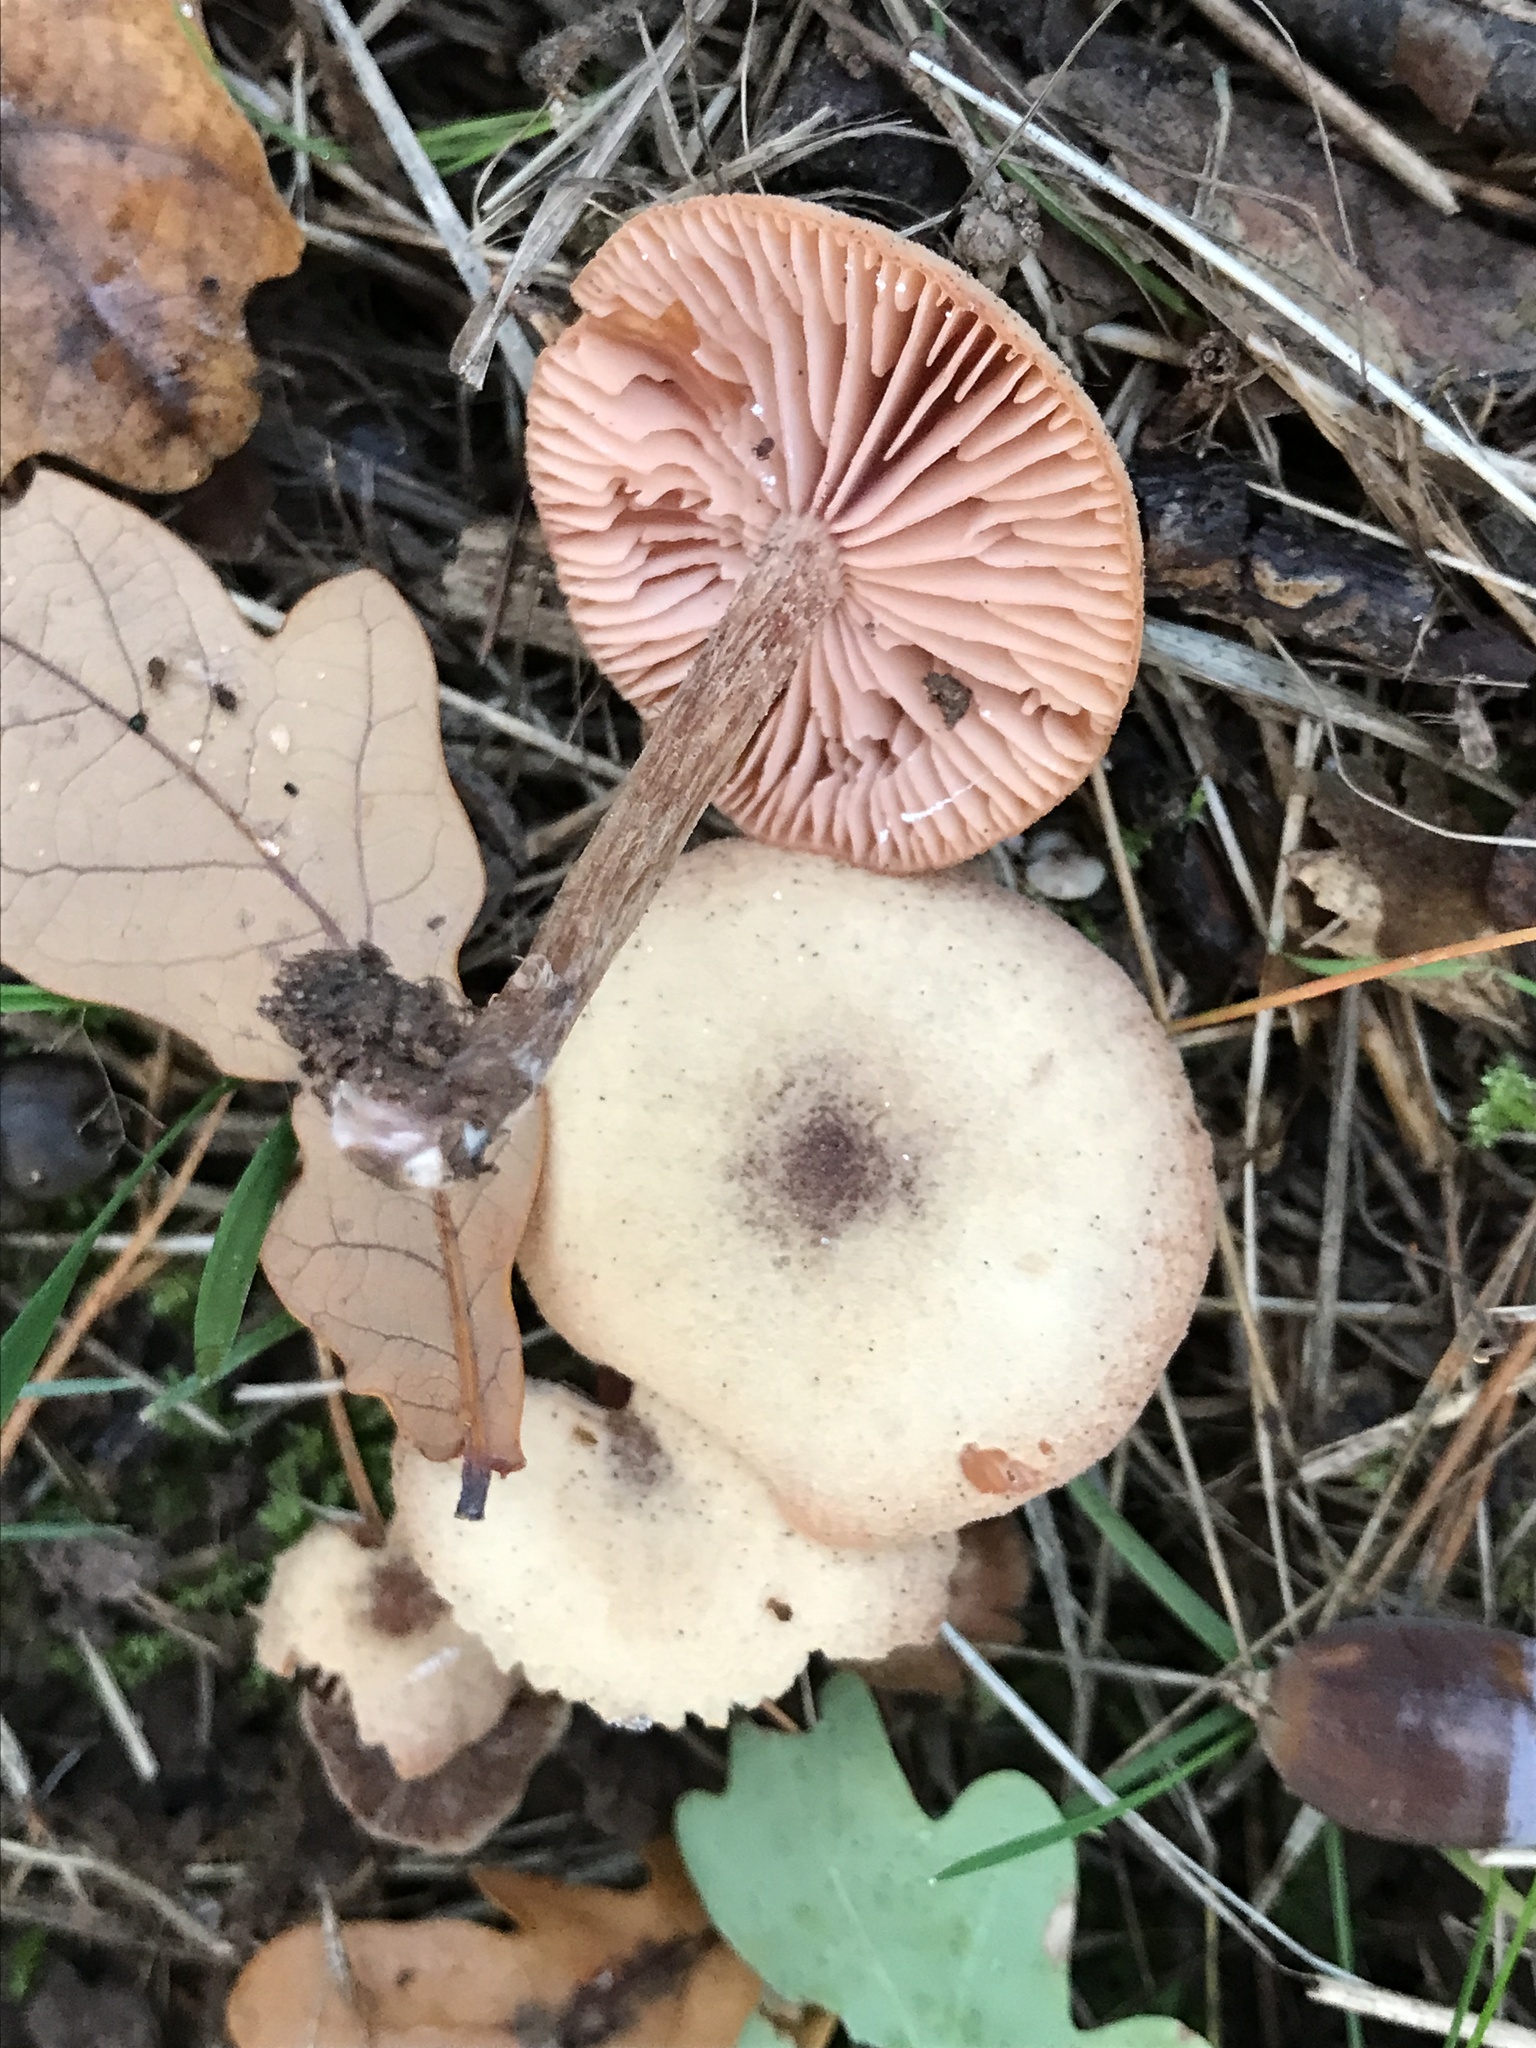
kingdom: Fungi
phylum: Basidiomycota
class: Agaricomycetes
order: Agaricales
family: Hydnangiaceae
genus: Laccaria
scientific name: Laccaria laccata
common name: Deceiver
